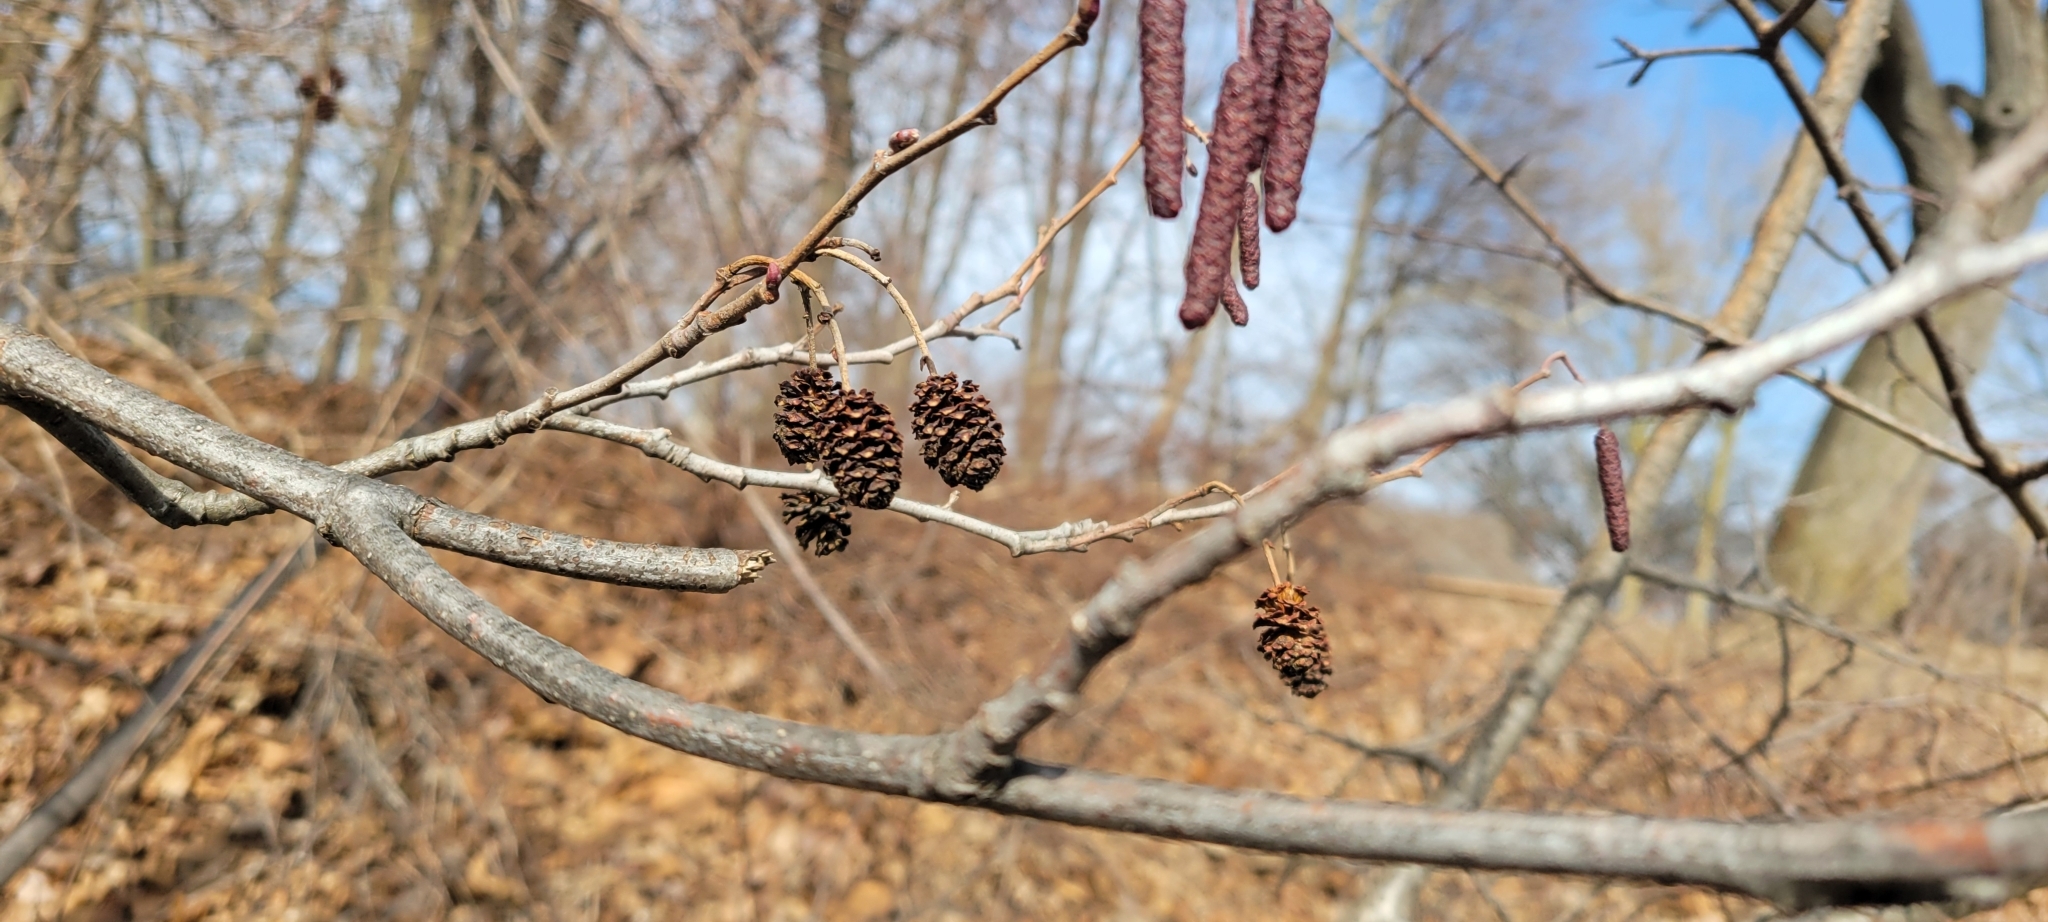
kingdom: Plantae
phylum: Tracheophyta
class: Magnoliopsida
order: Fagales
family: Betulaceae
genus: Alnus
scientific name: Alnus glutinosa
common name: Black alder
